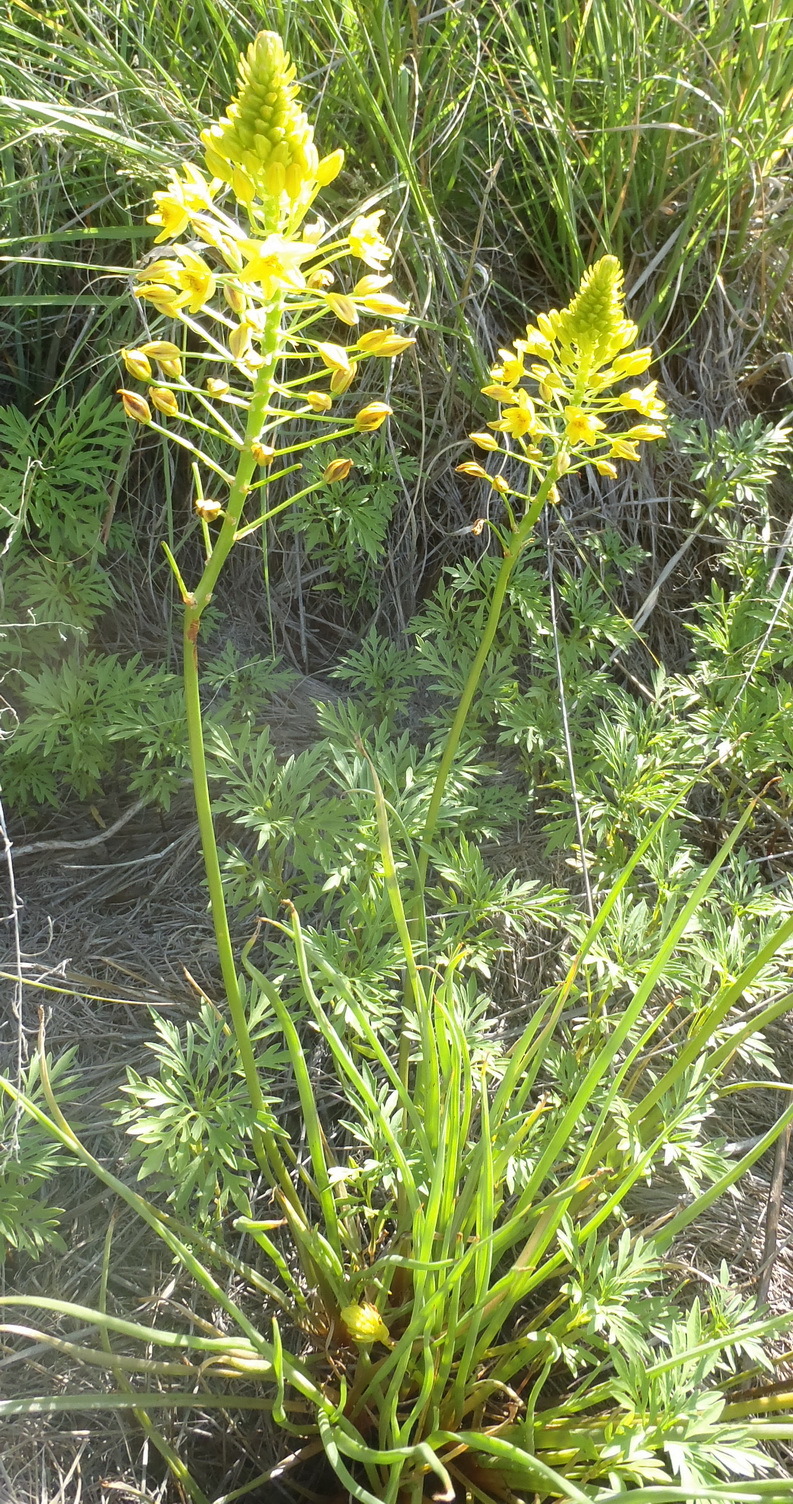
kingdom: Plantae
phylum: Tracheophyta
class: Liliopsida
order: Asparagales
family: Asphodelaceae
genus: Bulbine
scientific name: Bulbine abyssinica
